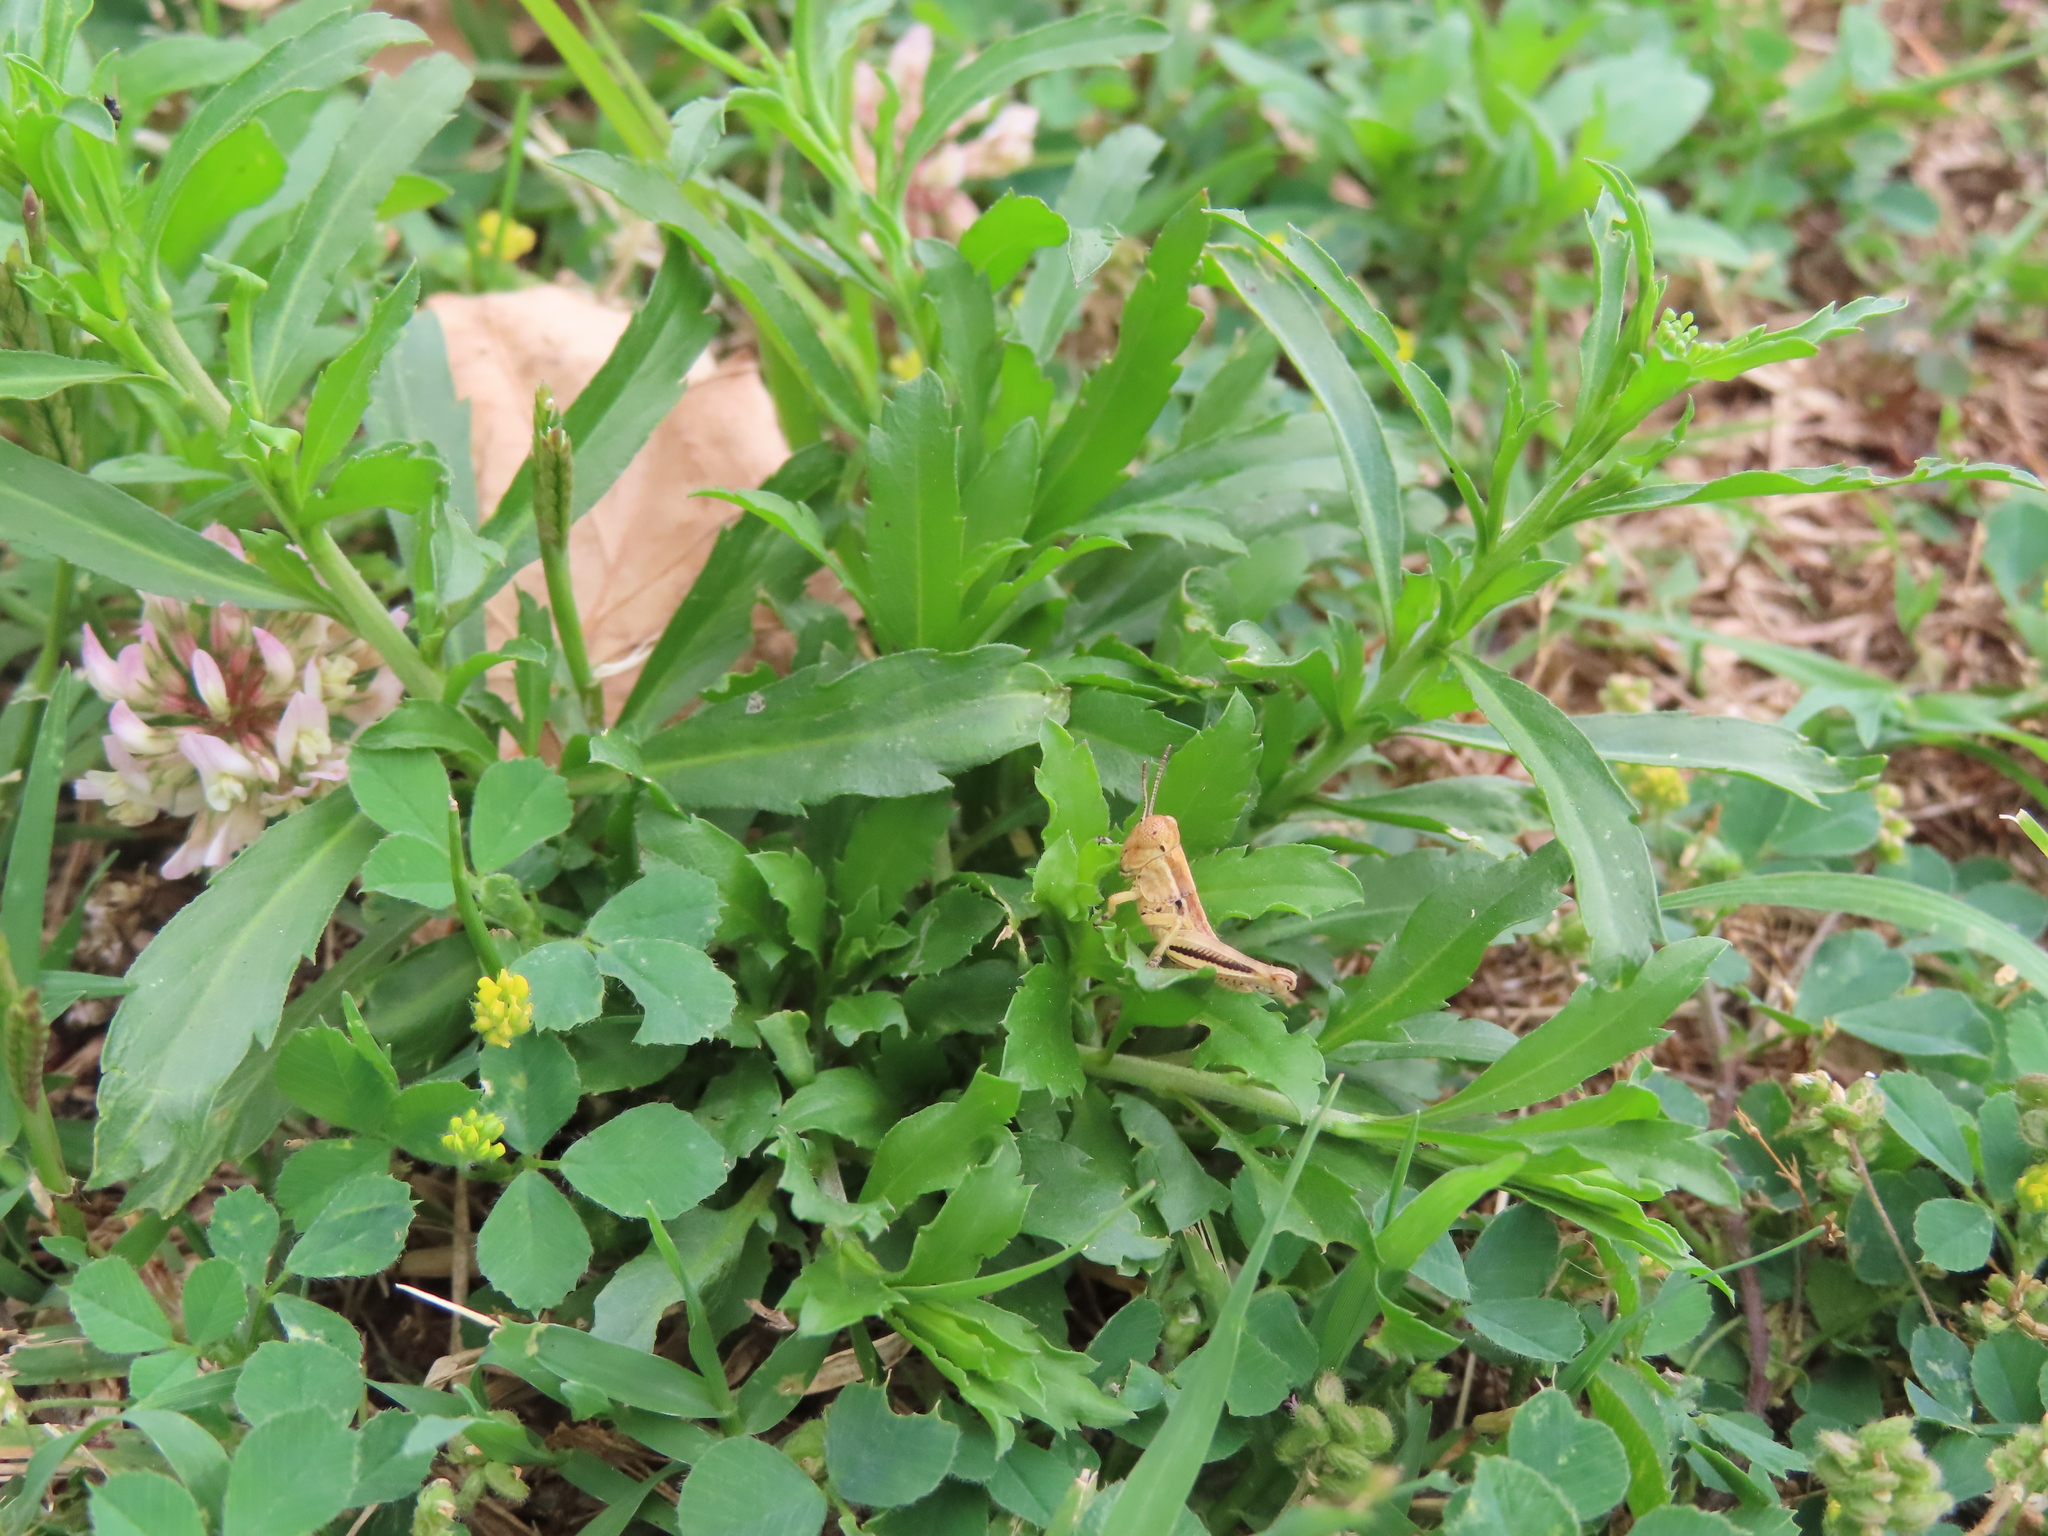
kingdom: Plantae
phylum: Tracheophyta
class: Magnoliopsida
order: Fabales
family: Fabaceae
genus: Medicago
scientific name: Medicago lupulina
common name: Black medick
